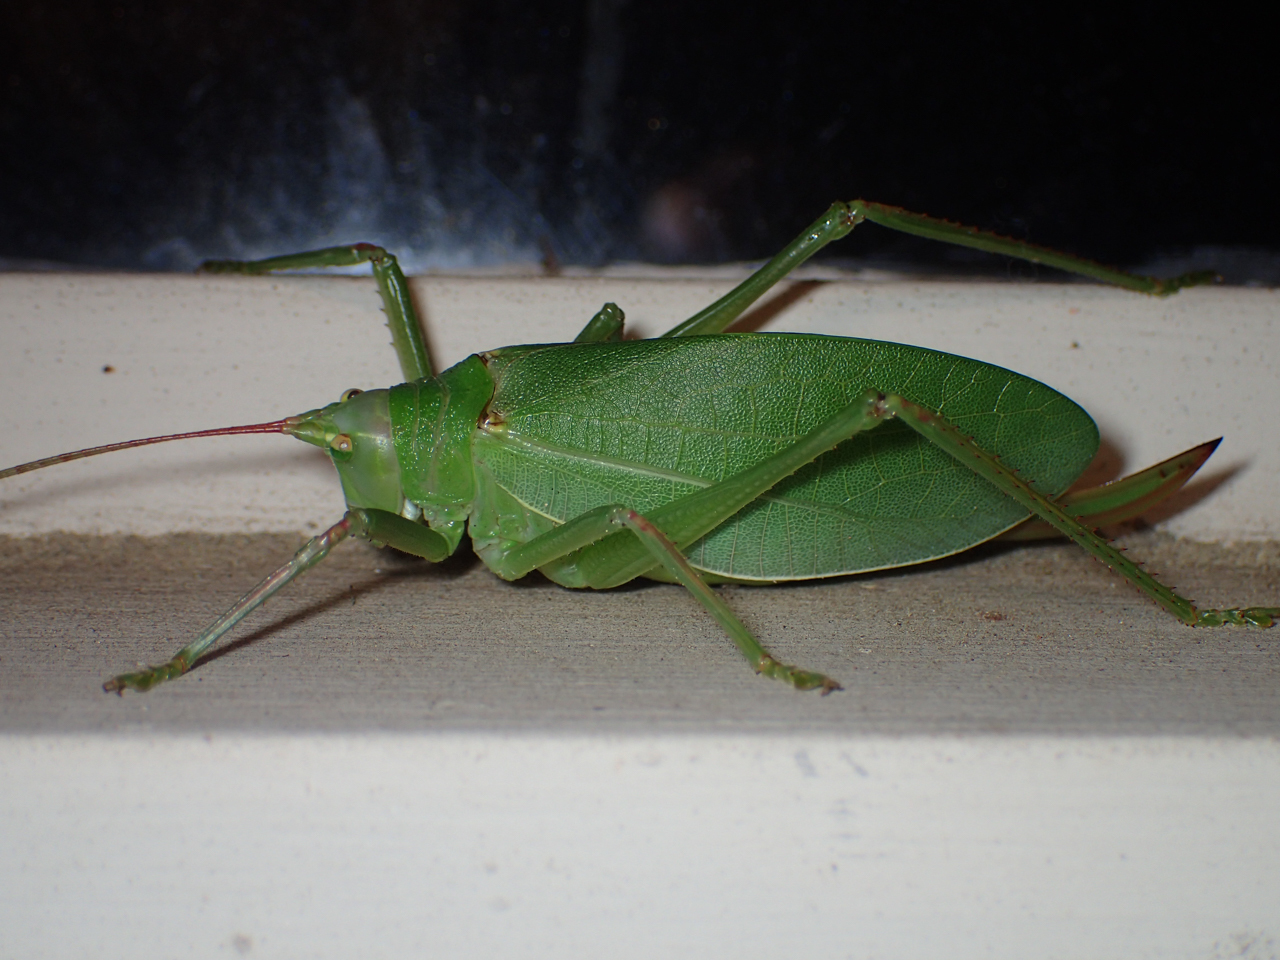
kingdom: Animalia
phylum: Arthropoda
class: Insecta
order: Orthoptera
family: Tettigoniidae
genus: Pterophylla
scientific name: Pterophylla camellifolia
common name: Common true katydid
